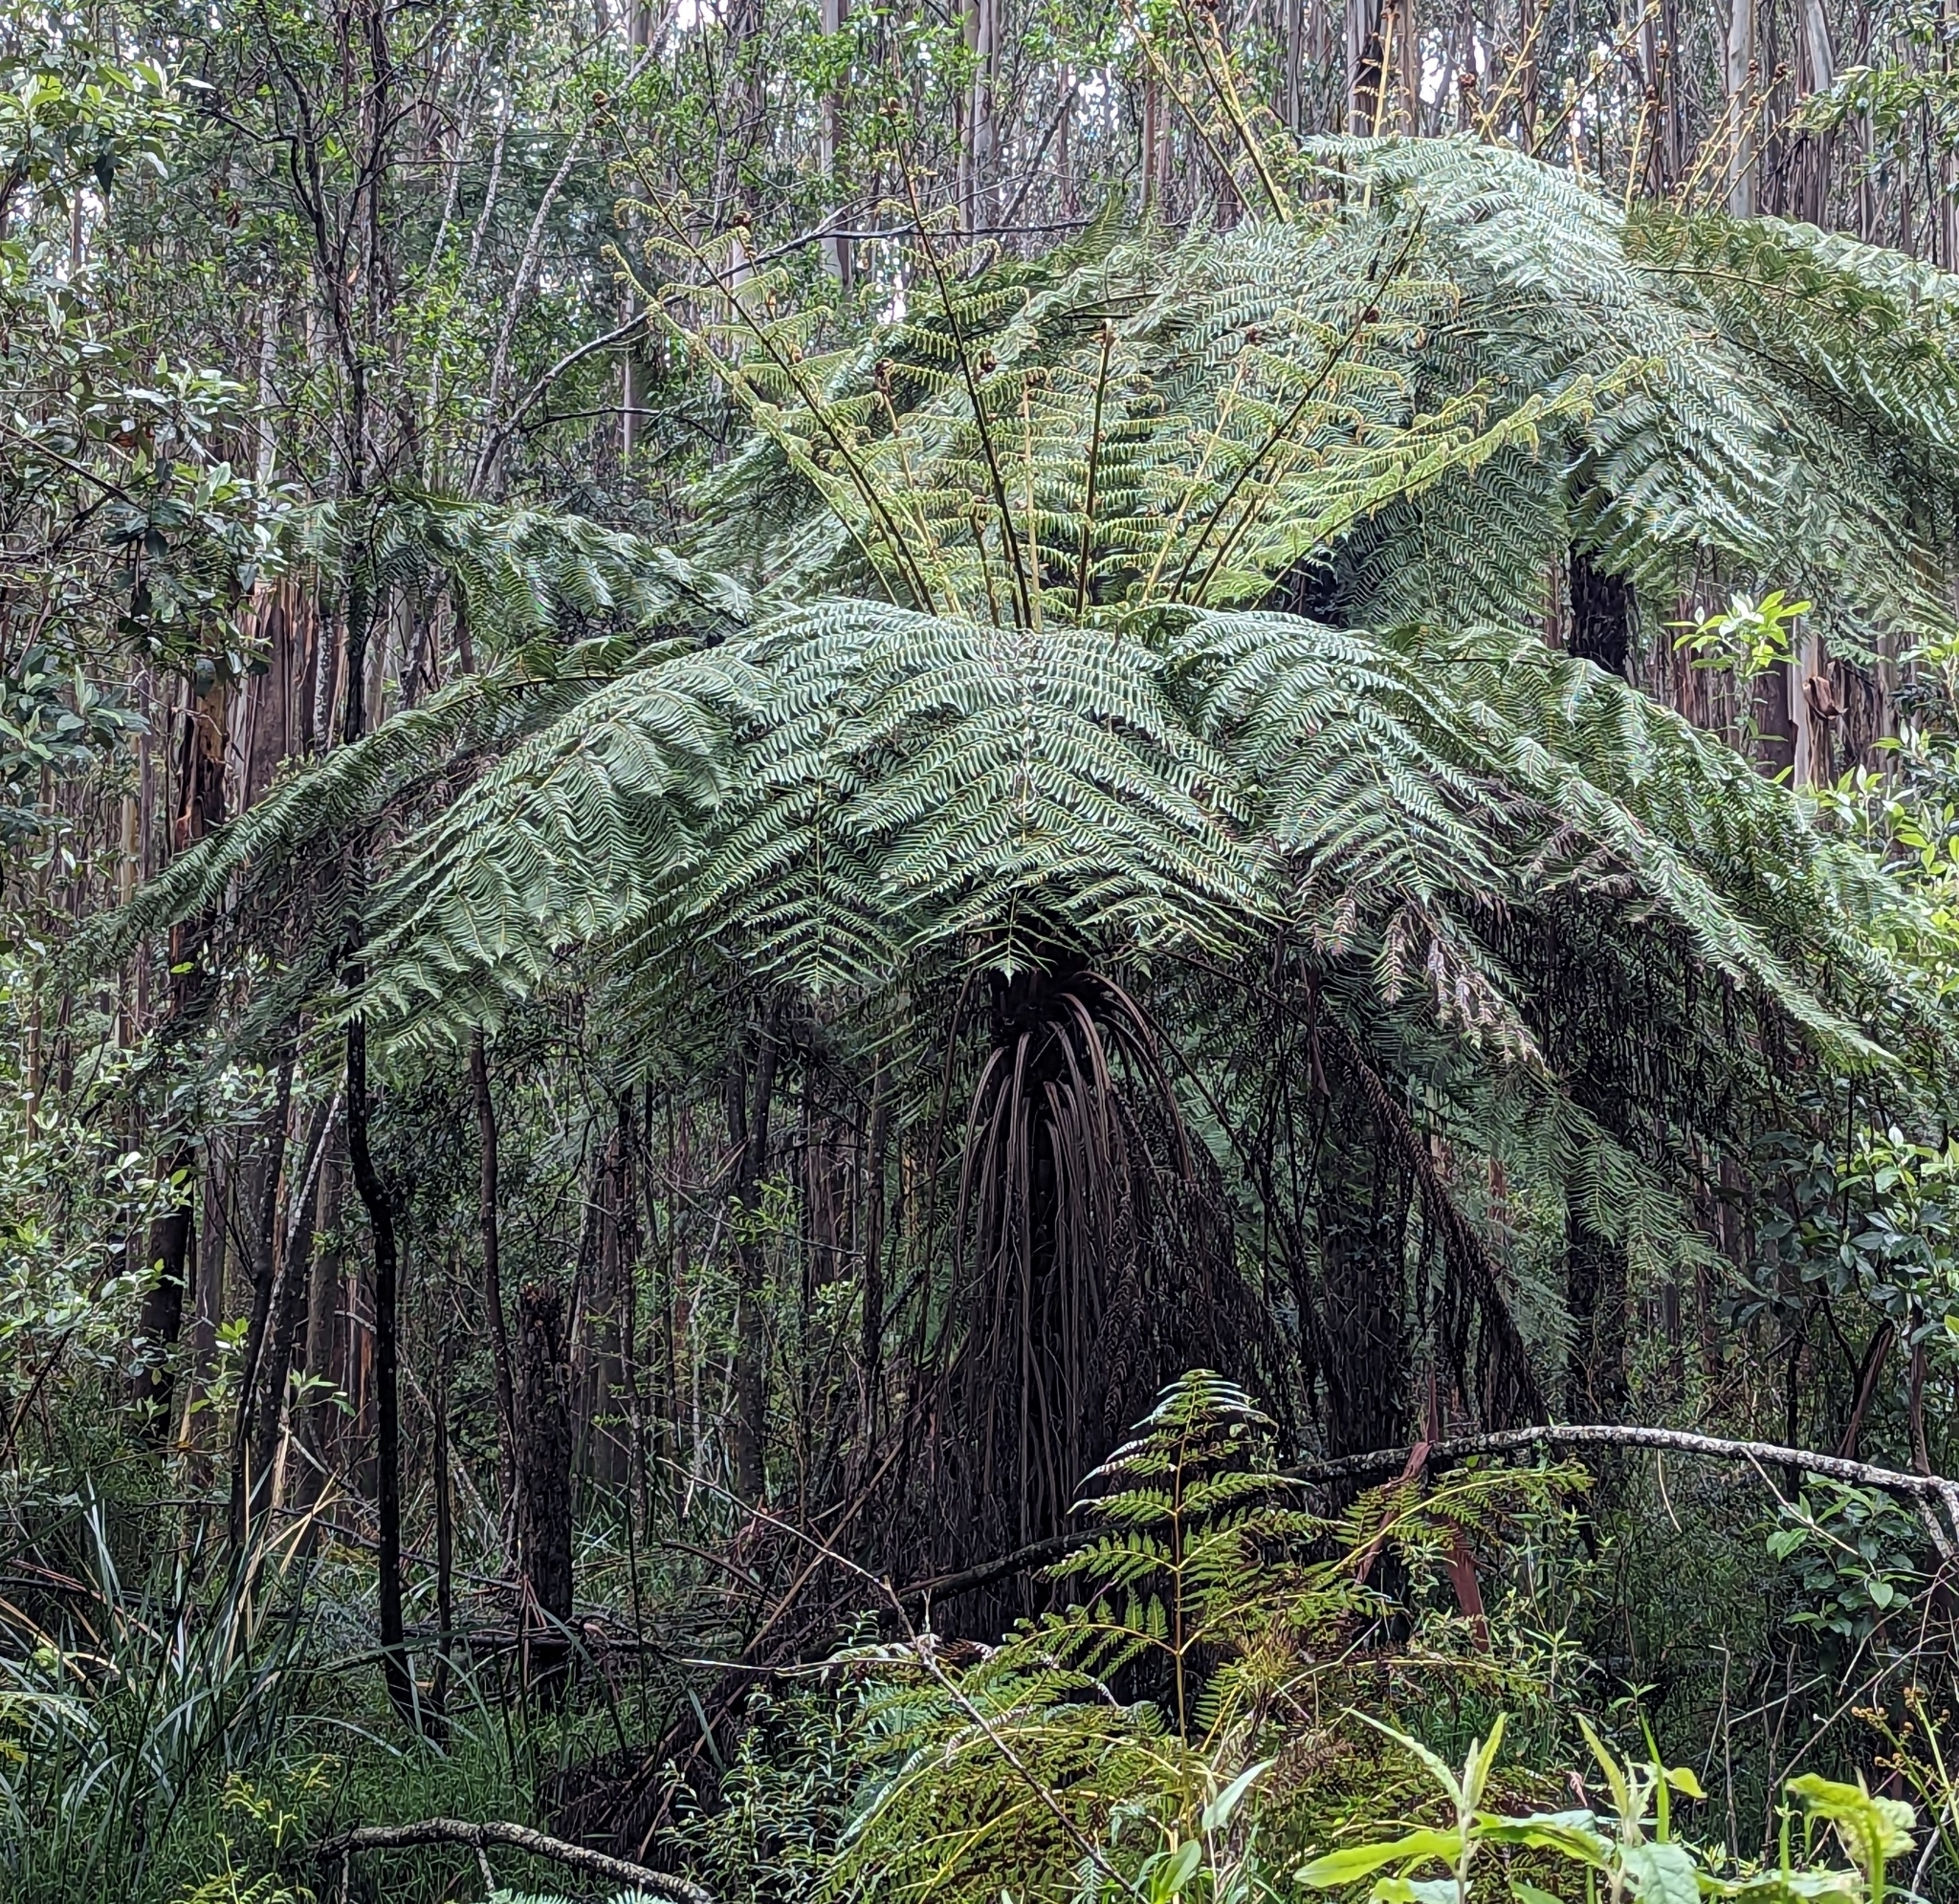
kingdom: Plantae
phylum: Tracheophyta
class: Polypodiopsida
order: Cyatheales
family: Cyatheaceae
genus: Alsophila
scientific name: Alsophila australis
